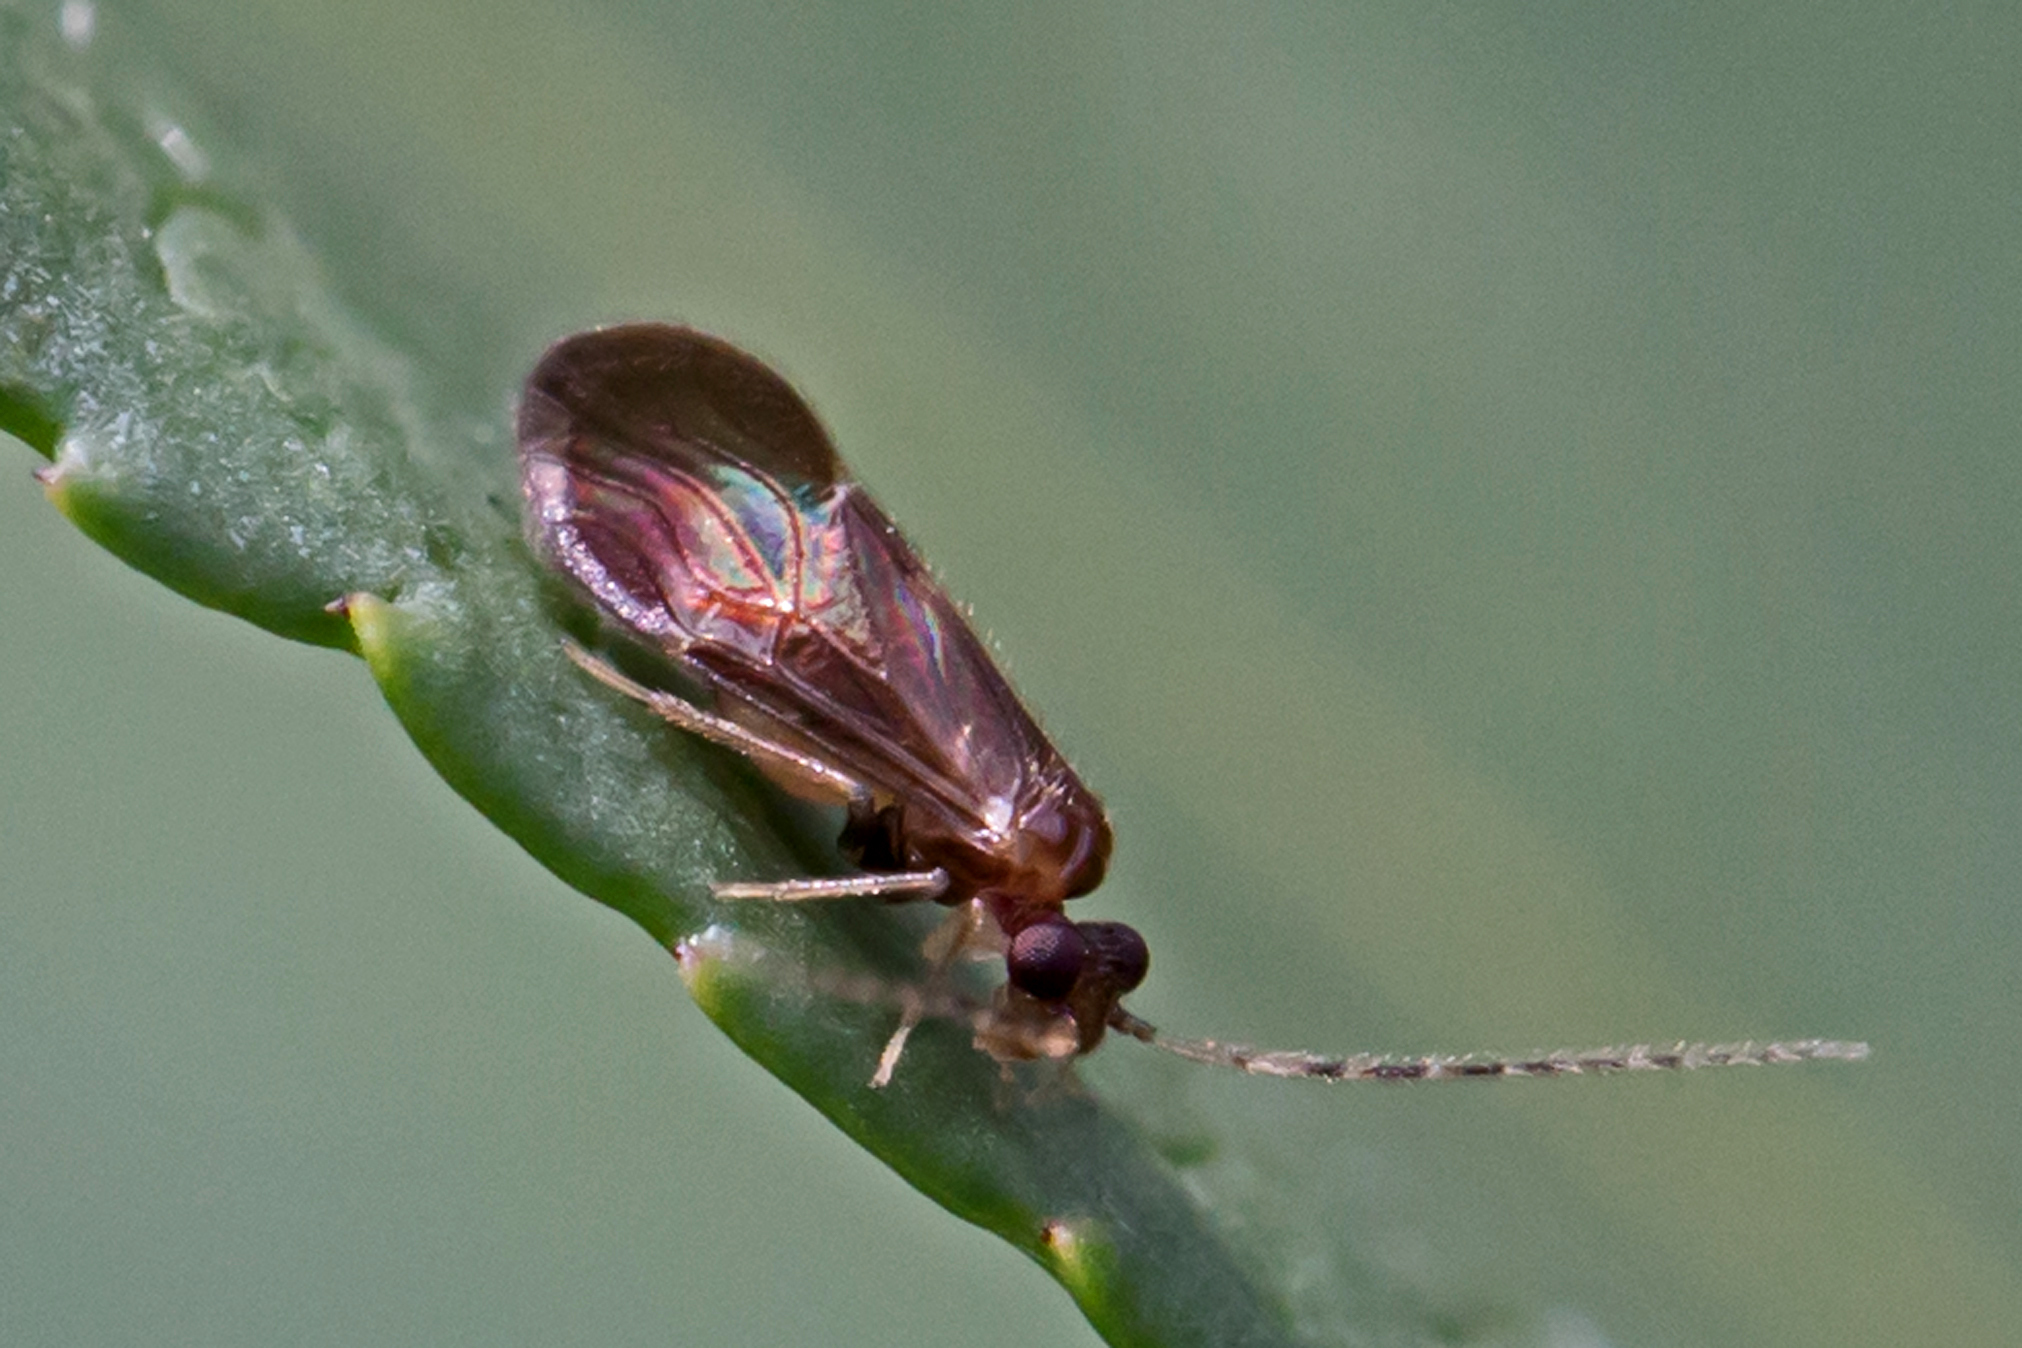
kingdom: Animalia
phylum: Arthropoda
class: Insecta
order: Psocodea
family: Amphipsocidae
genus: Polypsocus
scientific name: Polypsocus corruptus
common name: Corrupt barklouse
